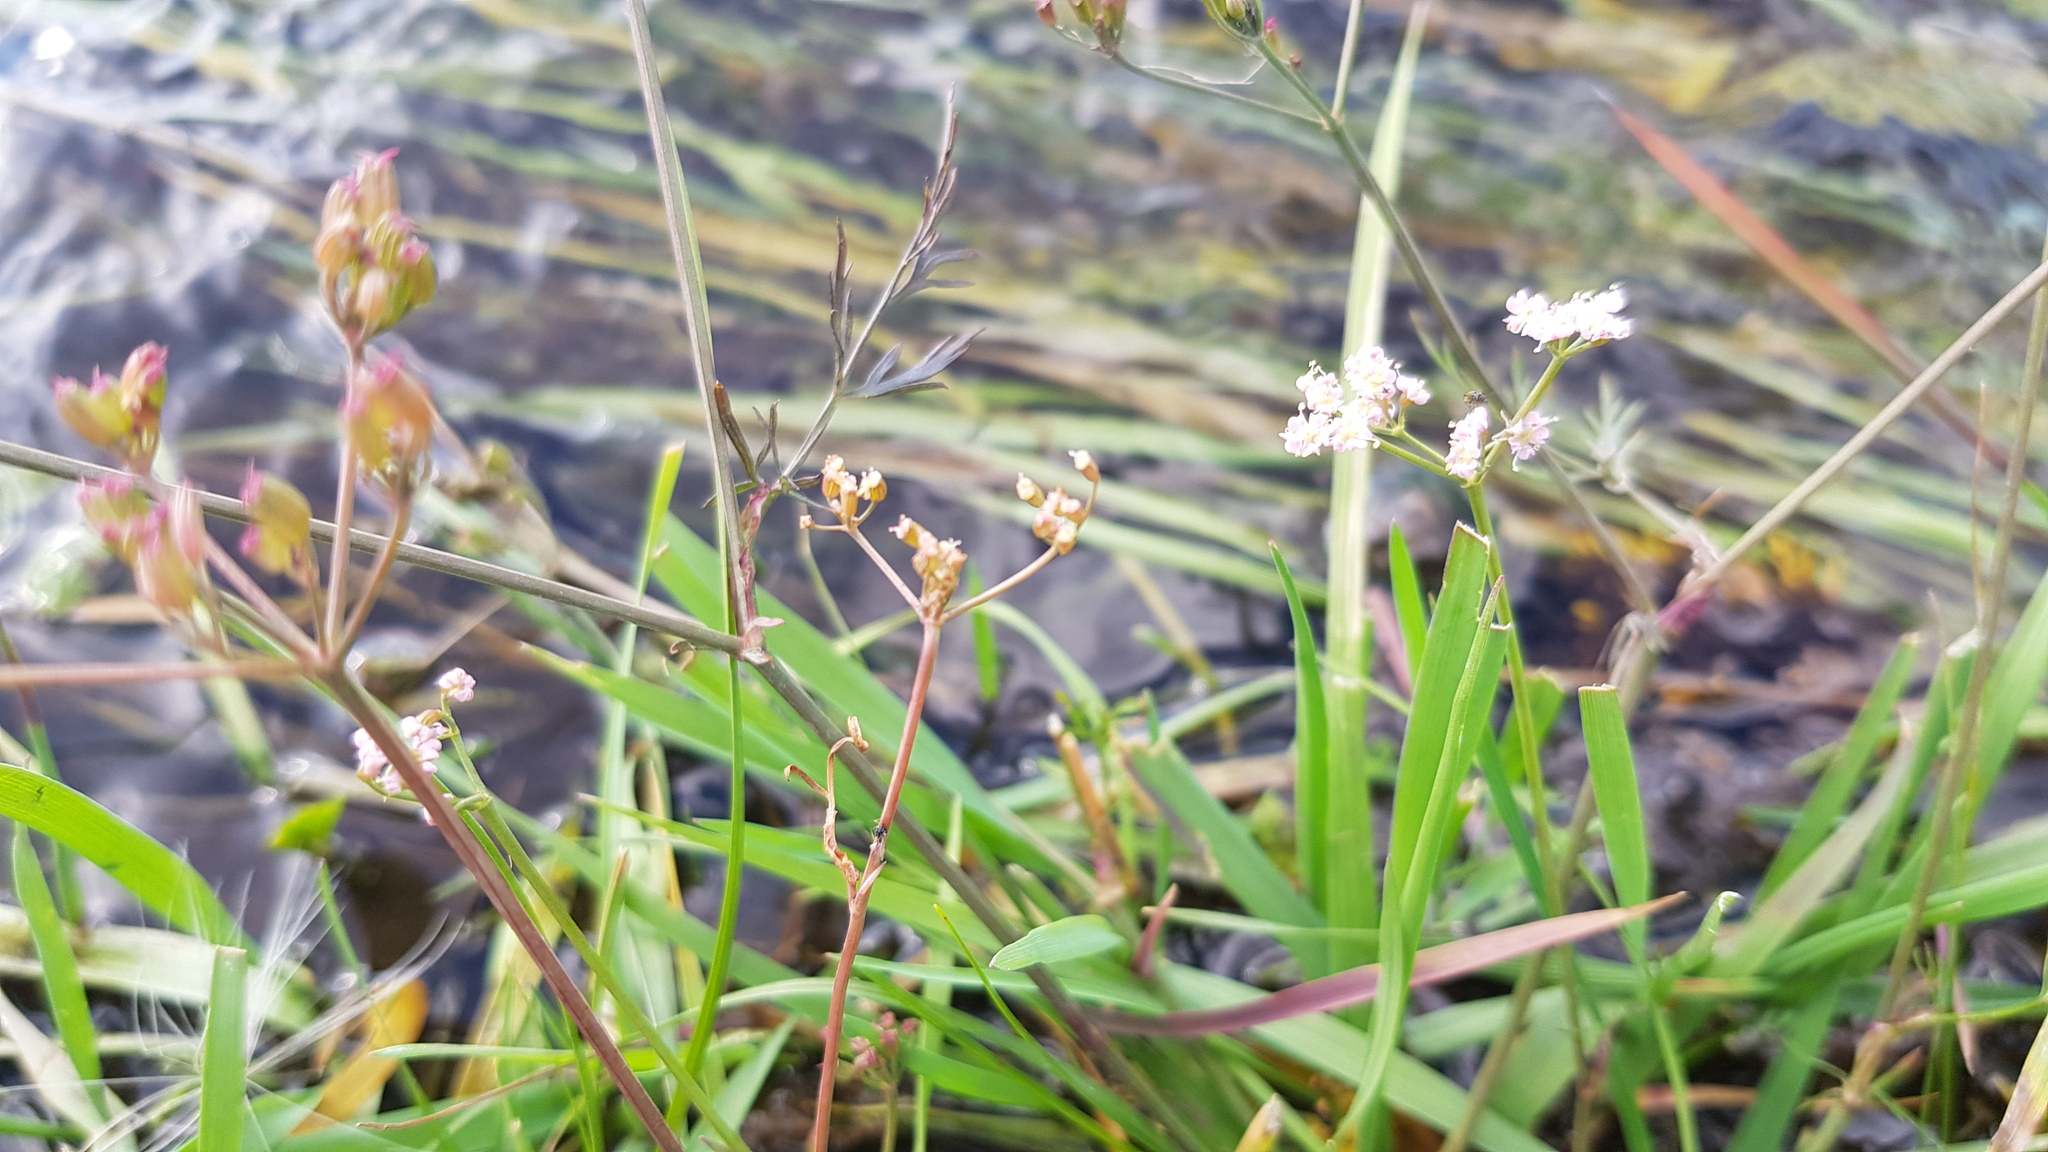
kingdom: Plantae
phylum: Tracheophyta
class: Magnoliopsida
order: Apiales
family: Apiaceae
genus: Carum
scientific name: Carum carvi
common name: Caraway
